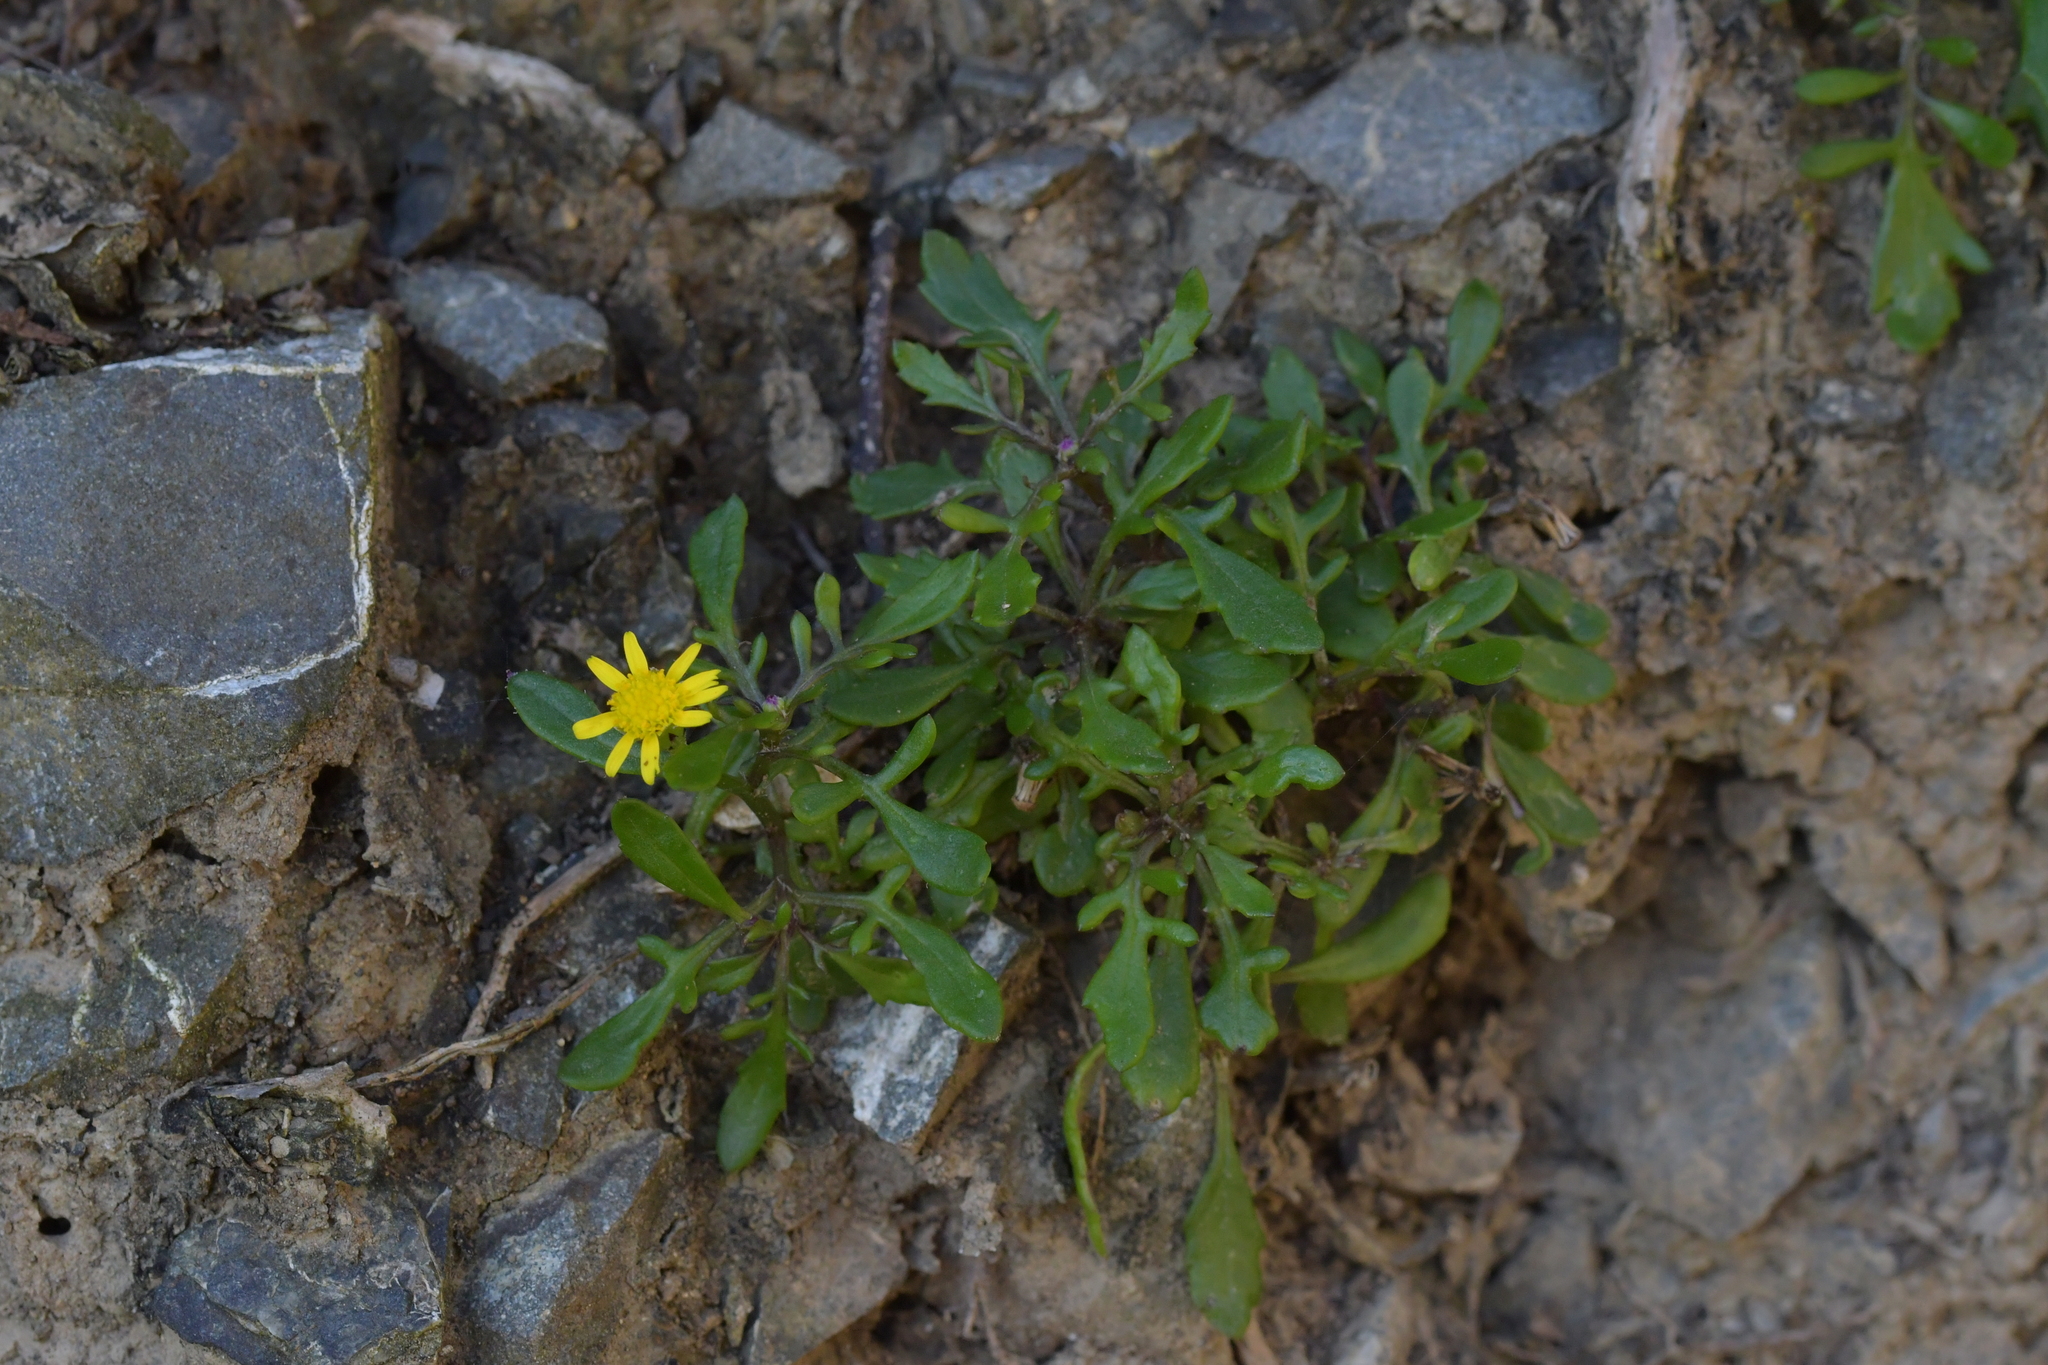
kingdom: Plantae
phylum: Tracheophyta
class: Magnoliopsida
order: Asterales
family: Asteraceae
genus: Senecio
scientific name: Senecio lautus
